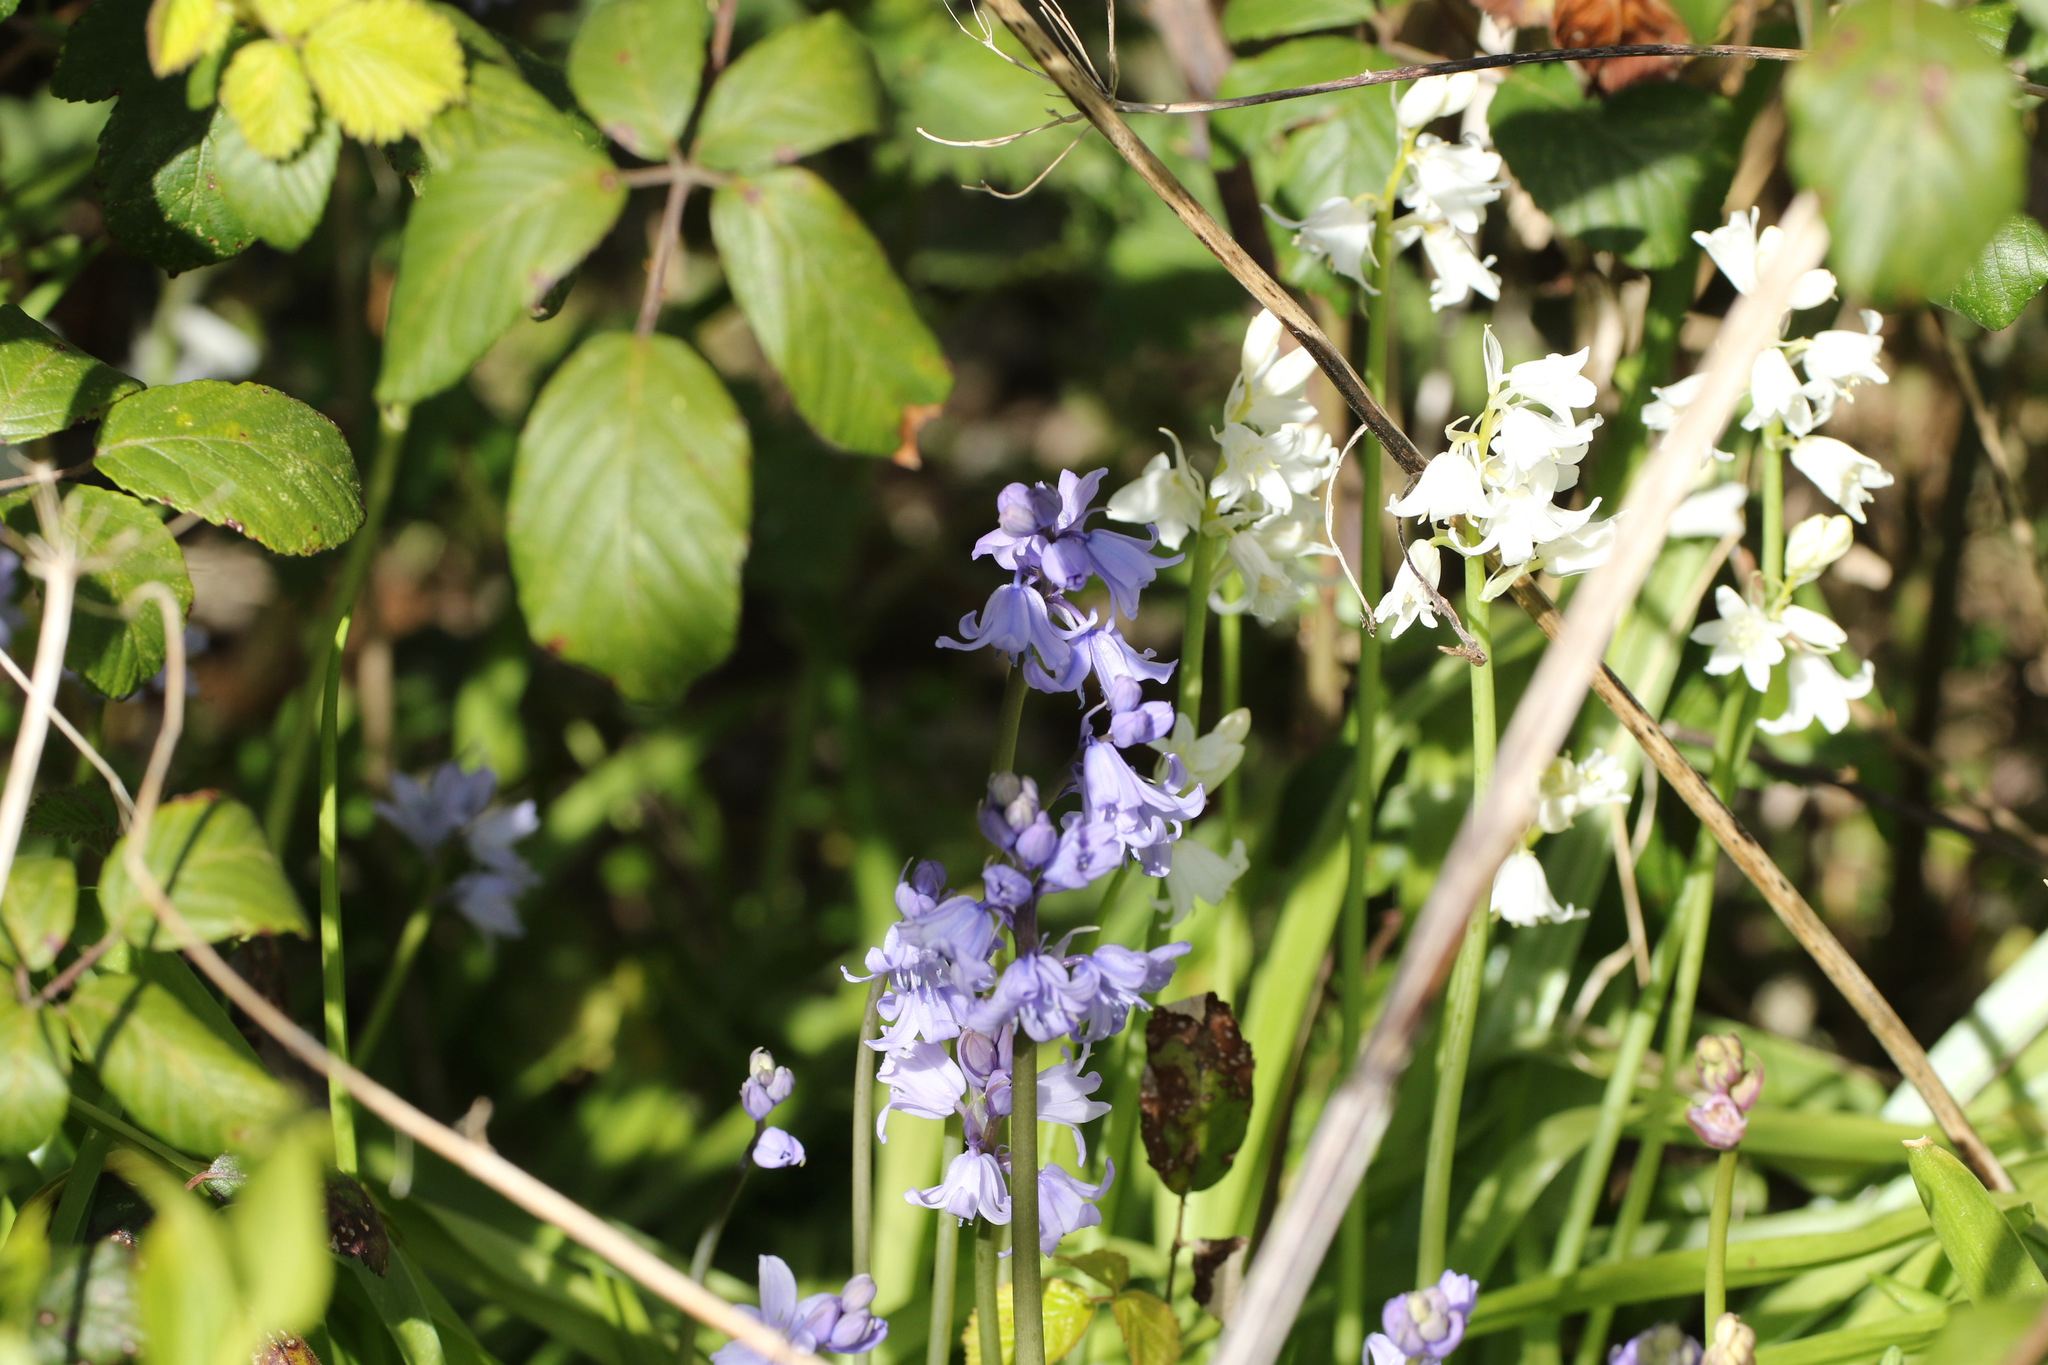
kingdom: Plantae
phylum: Tracheophyta
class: Liliopsida
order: Asparagales
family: Asparagaceae
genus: Hyacinthoides
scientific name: Hyacinthoides hispanica
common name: Spanish bluebell
